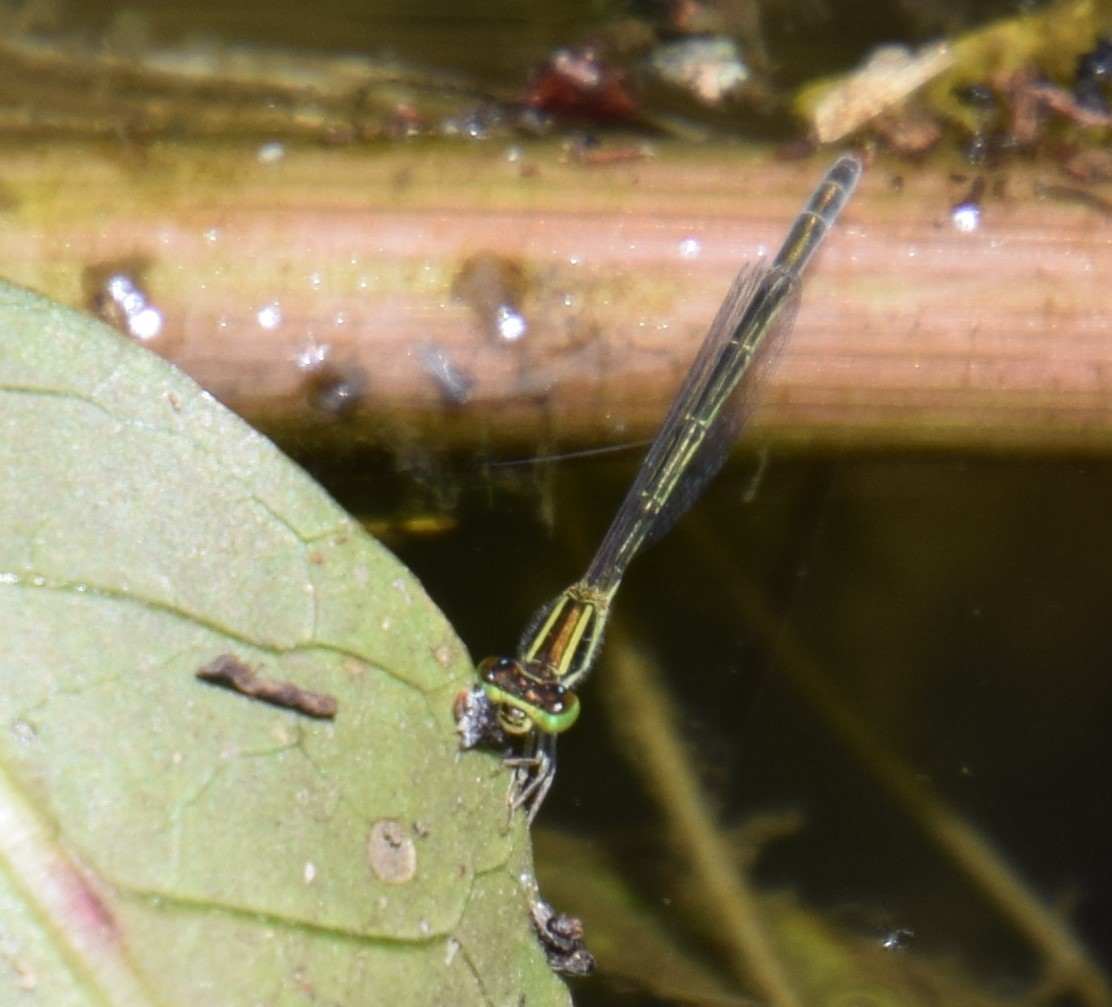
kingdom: Animalia
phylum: Arthropoda
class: Insecta
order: Odonata
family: Coenagrionidae
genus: Ischnura
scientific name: Ischnura aurora
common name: Gossamer damselfly
